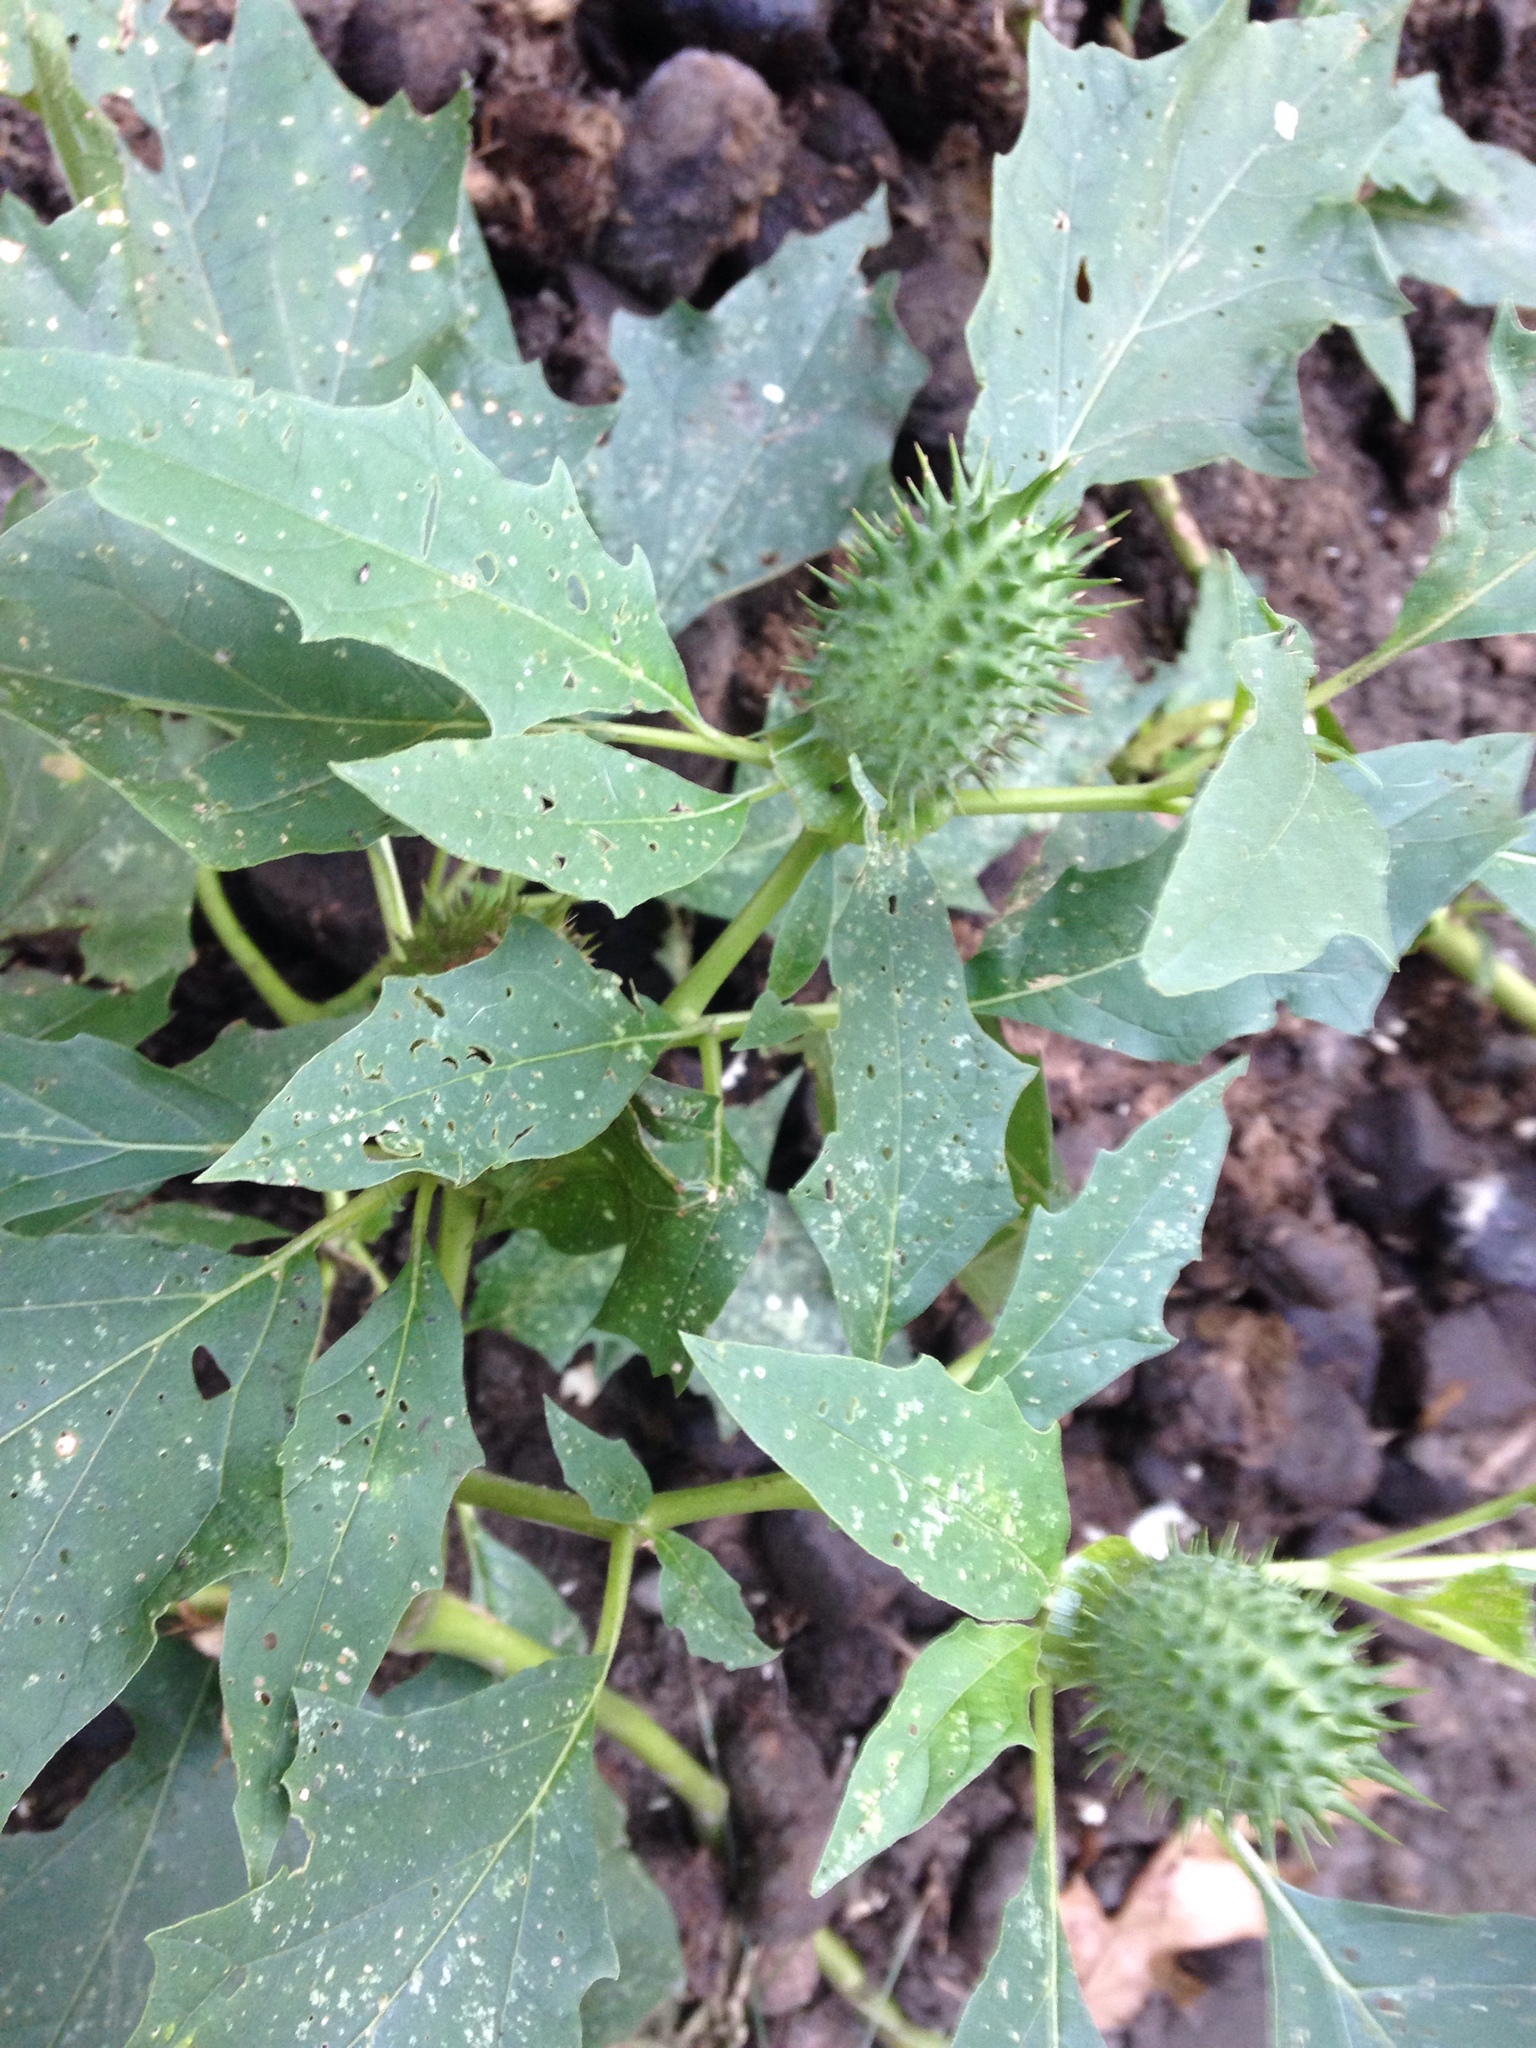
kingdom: Plantae
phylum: Tracheophyta
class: Magnoliopsida
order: Solanales
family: Solanaceae
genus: Datura
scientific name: Datura stramonium
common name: Thorn-apple
